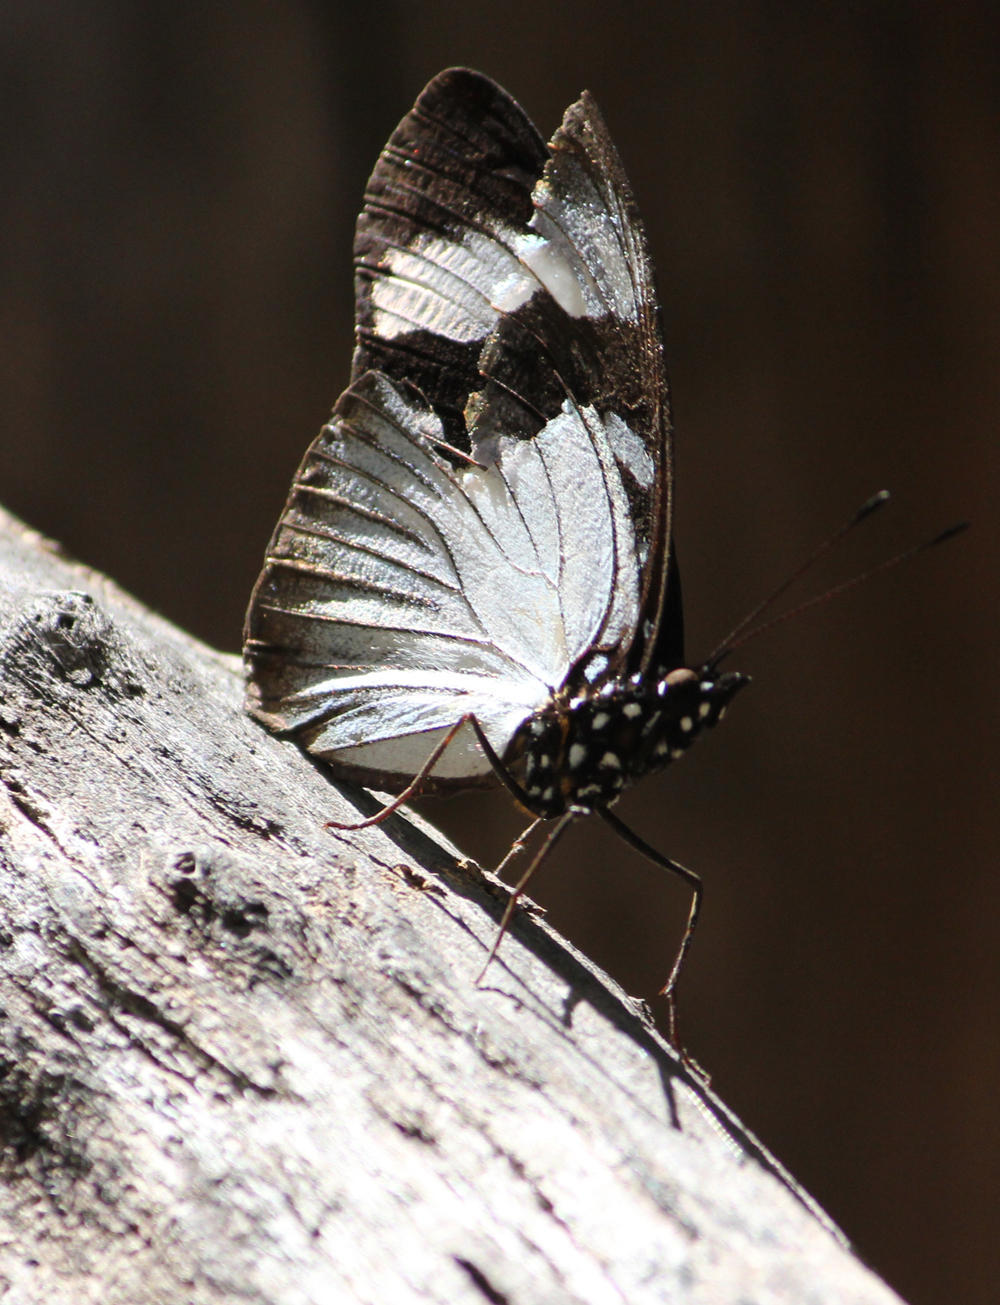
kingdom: Animalia
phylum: Arthropoda
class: Insecta
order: Lepidoptera
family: Nymphalidae
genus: Hypolimnas
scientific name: Hypolimnas dubius
